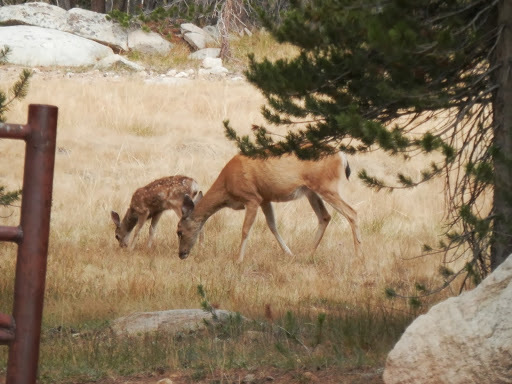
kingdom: Animalia
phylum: Chordata
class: Mammalia
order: Artiodactyla
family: Cervidae
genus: Odocoileus
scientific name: Odocoileus hemionus
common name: Mule deer
